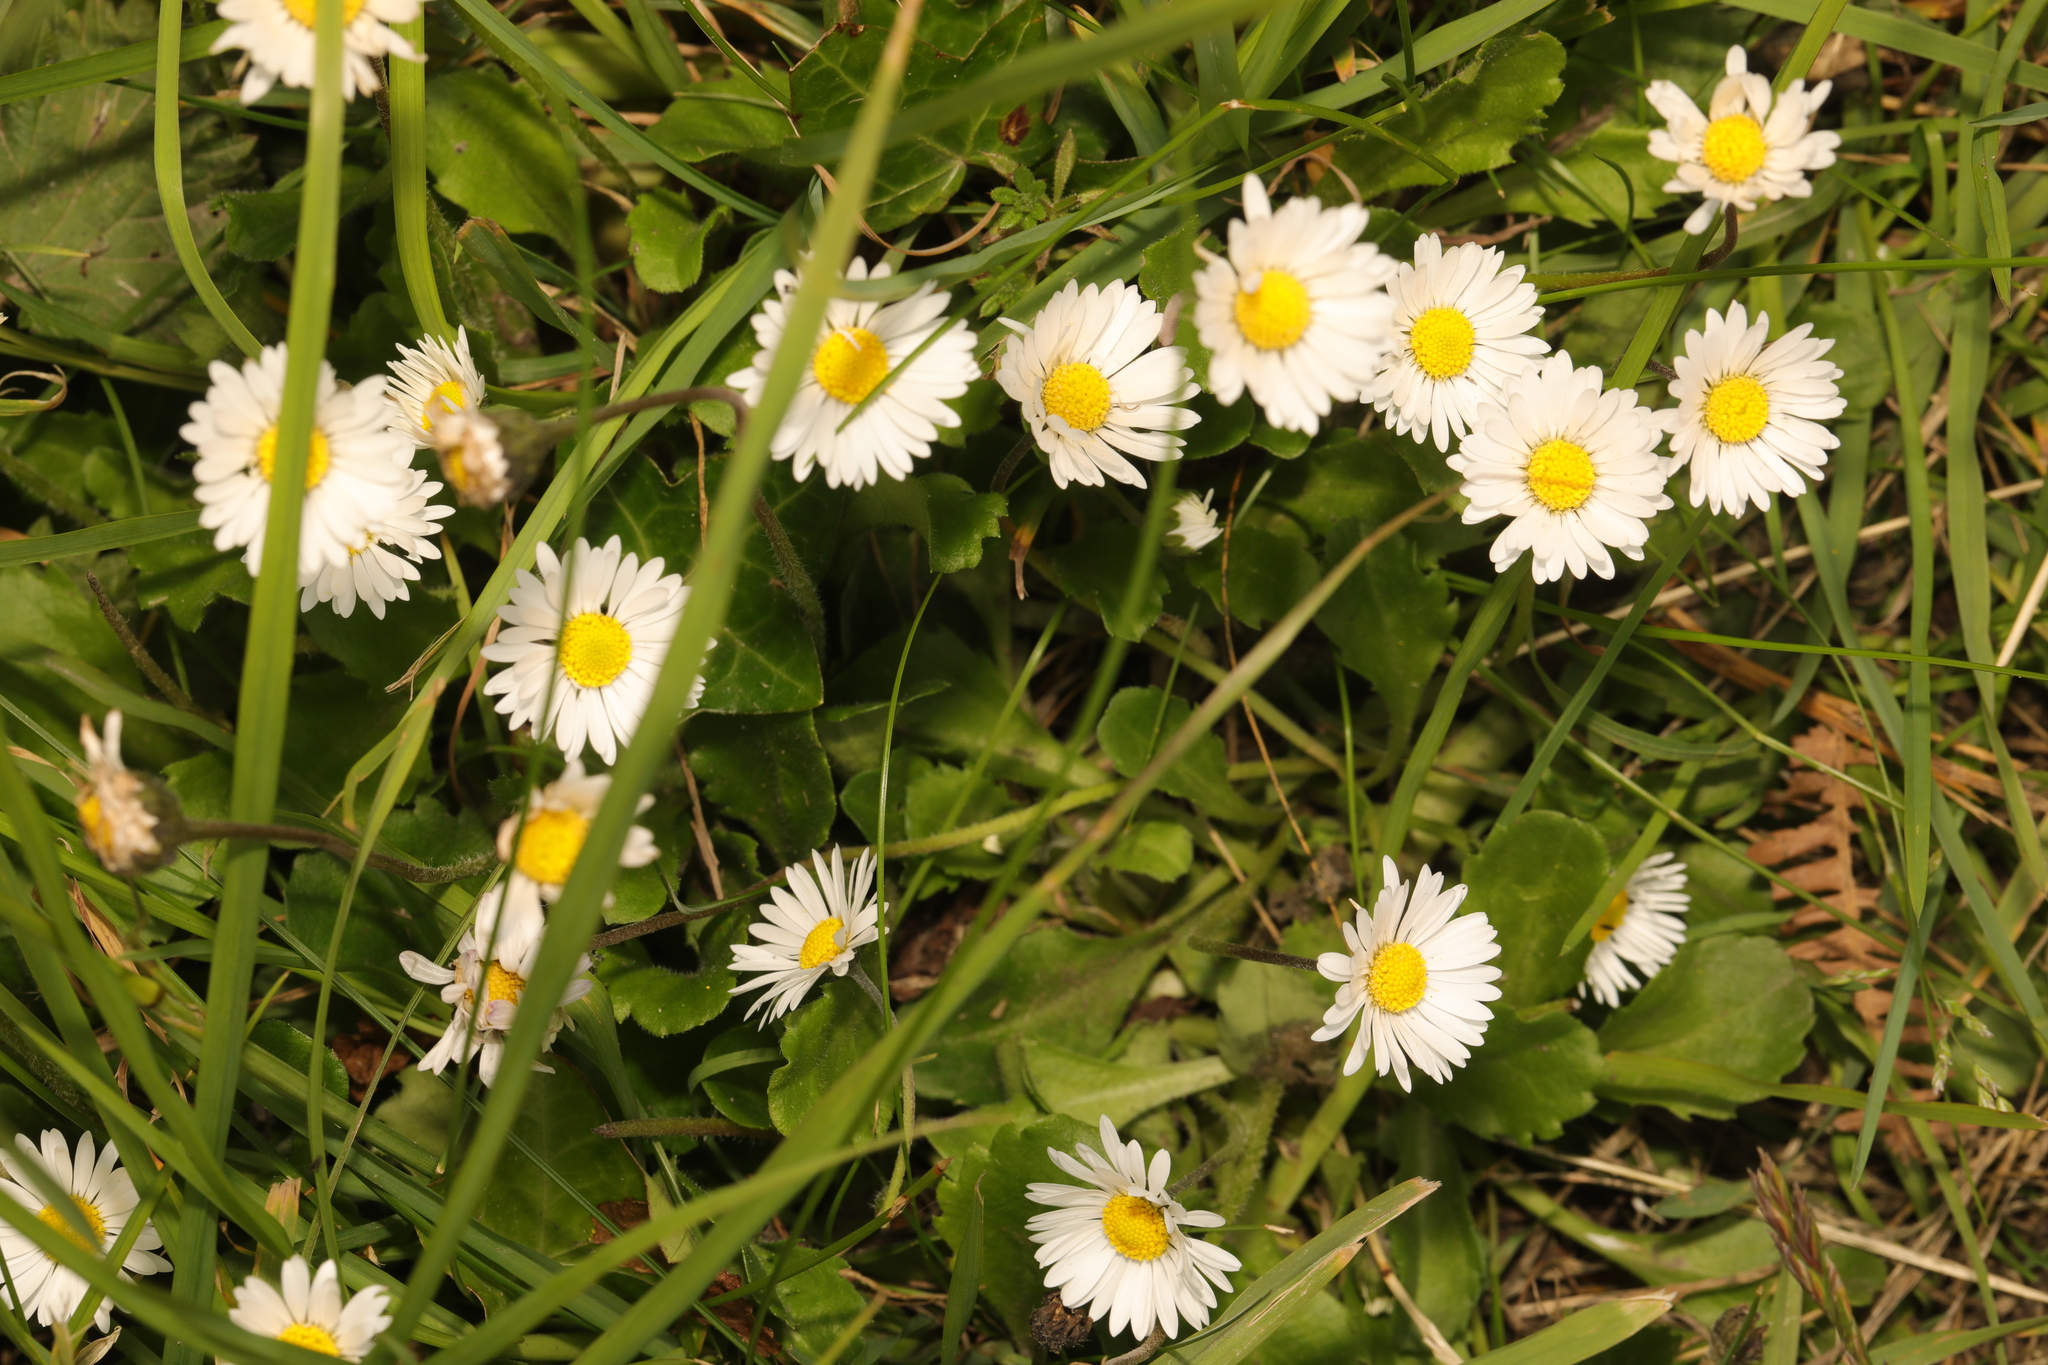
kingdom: Plantae
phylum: Tracheophyta
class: Magnoliopsida
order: Asterales
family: Asteraceae
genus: Bellis
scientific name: Bellis perennis
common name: Lawndaisy
